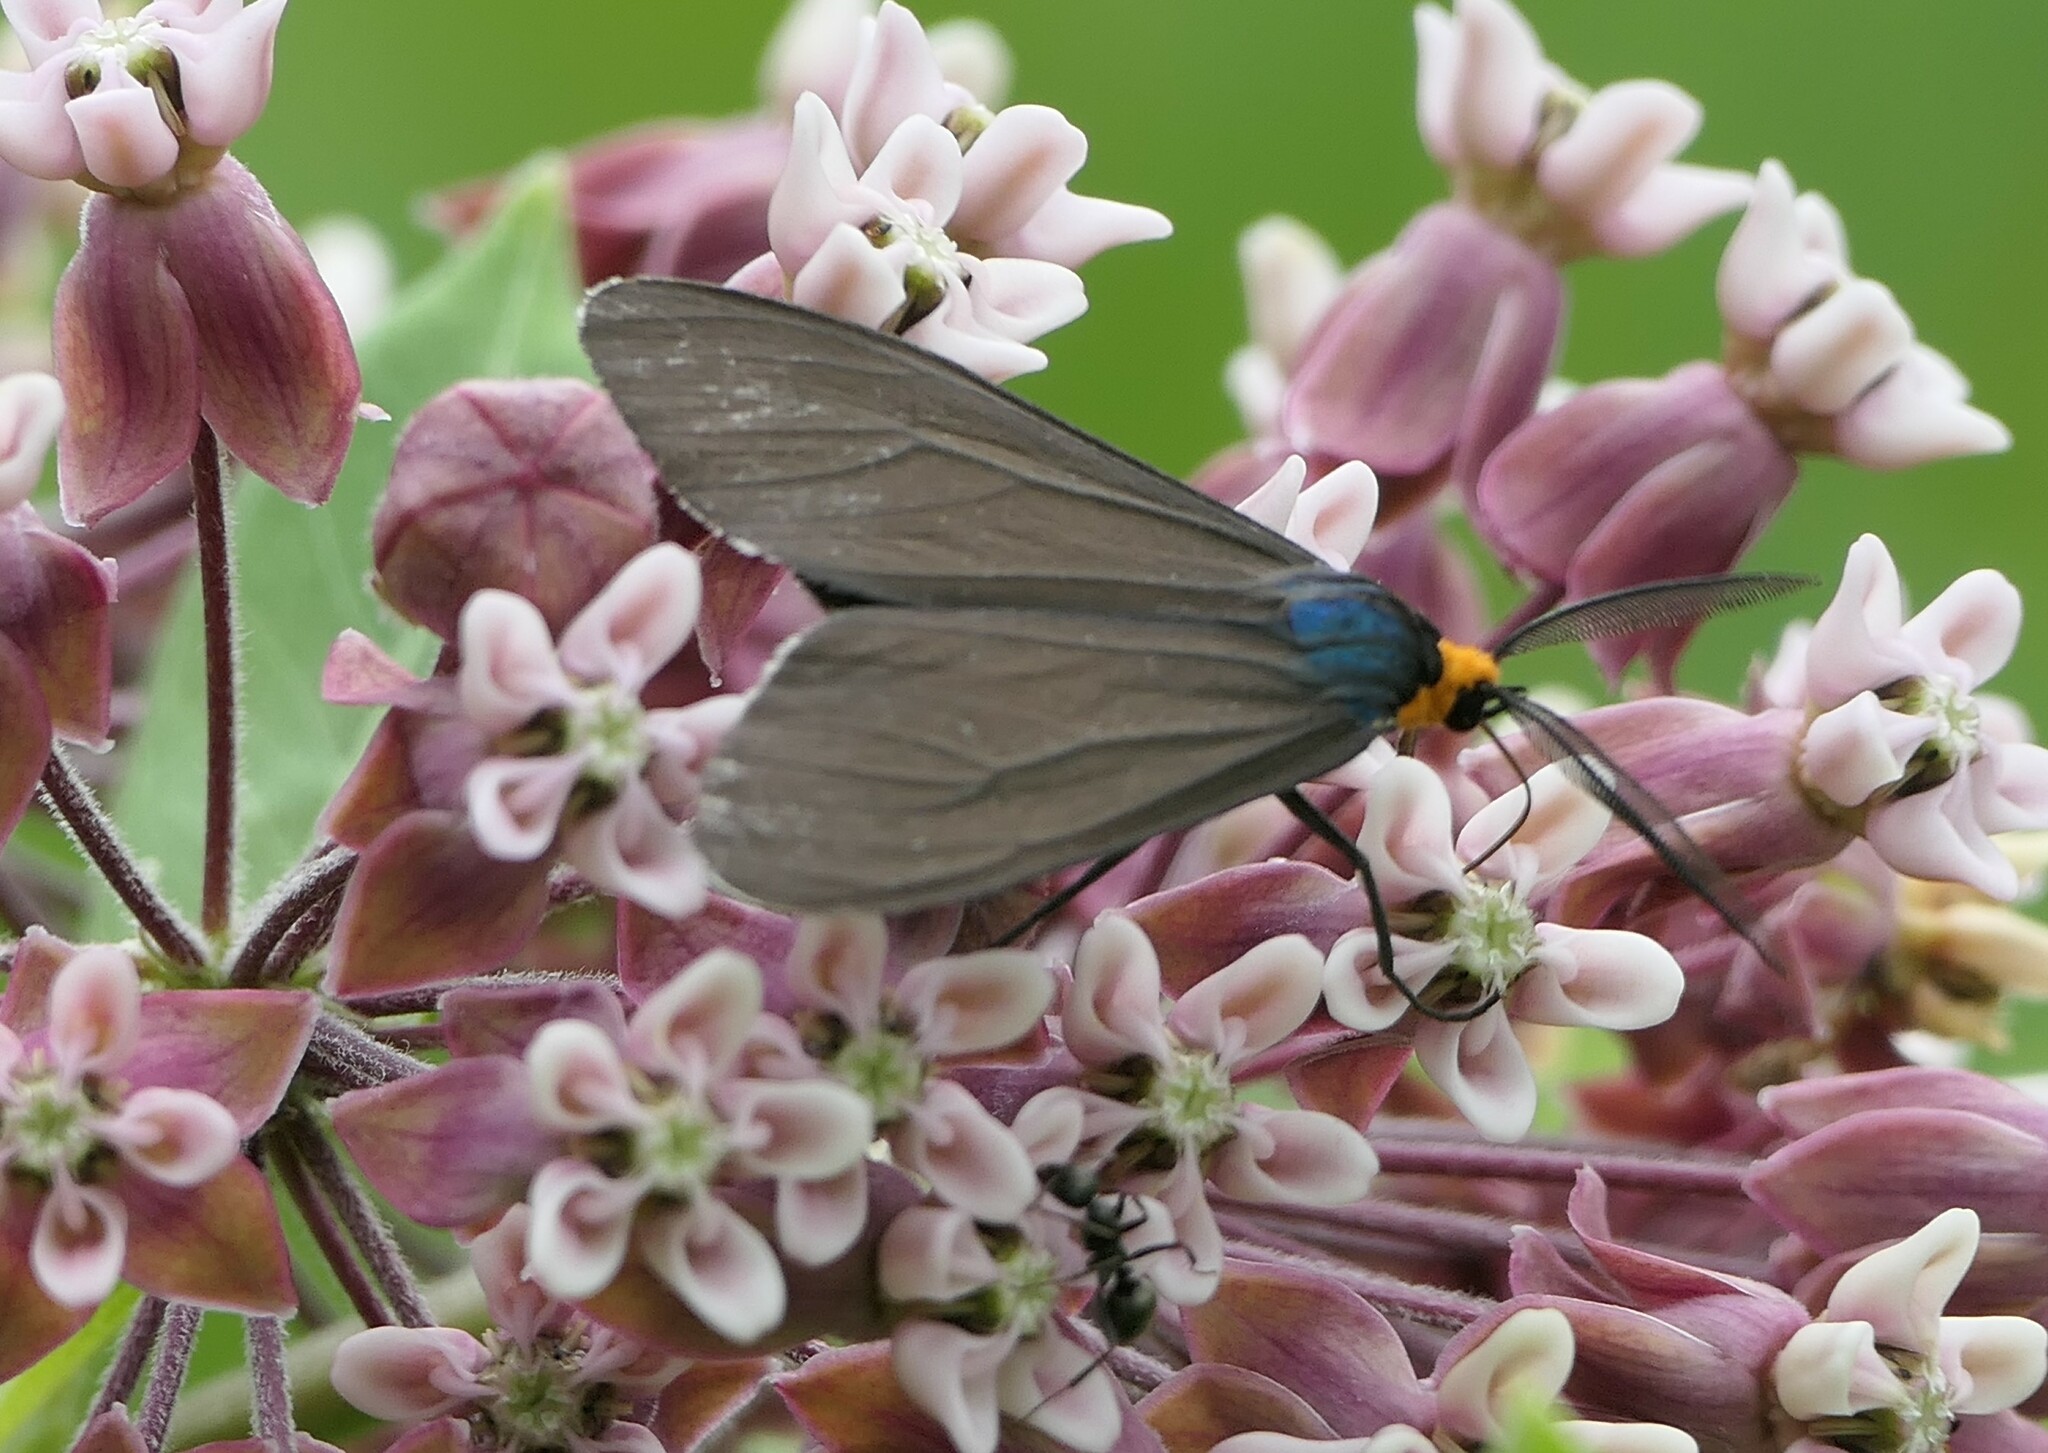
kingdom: Animalia
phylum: Arthropoda
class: Insecta
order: Lepidoptera
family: Erebidae
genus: Ctenucha
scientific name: Ctenucha virginica
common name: Virginia ctenucha moth
